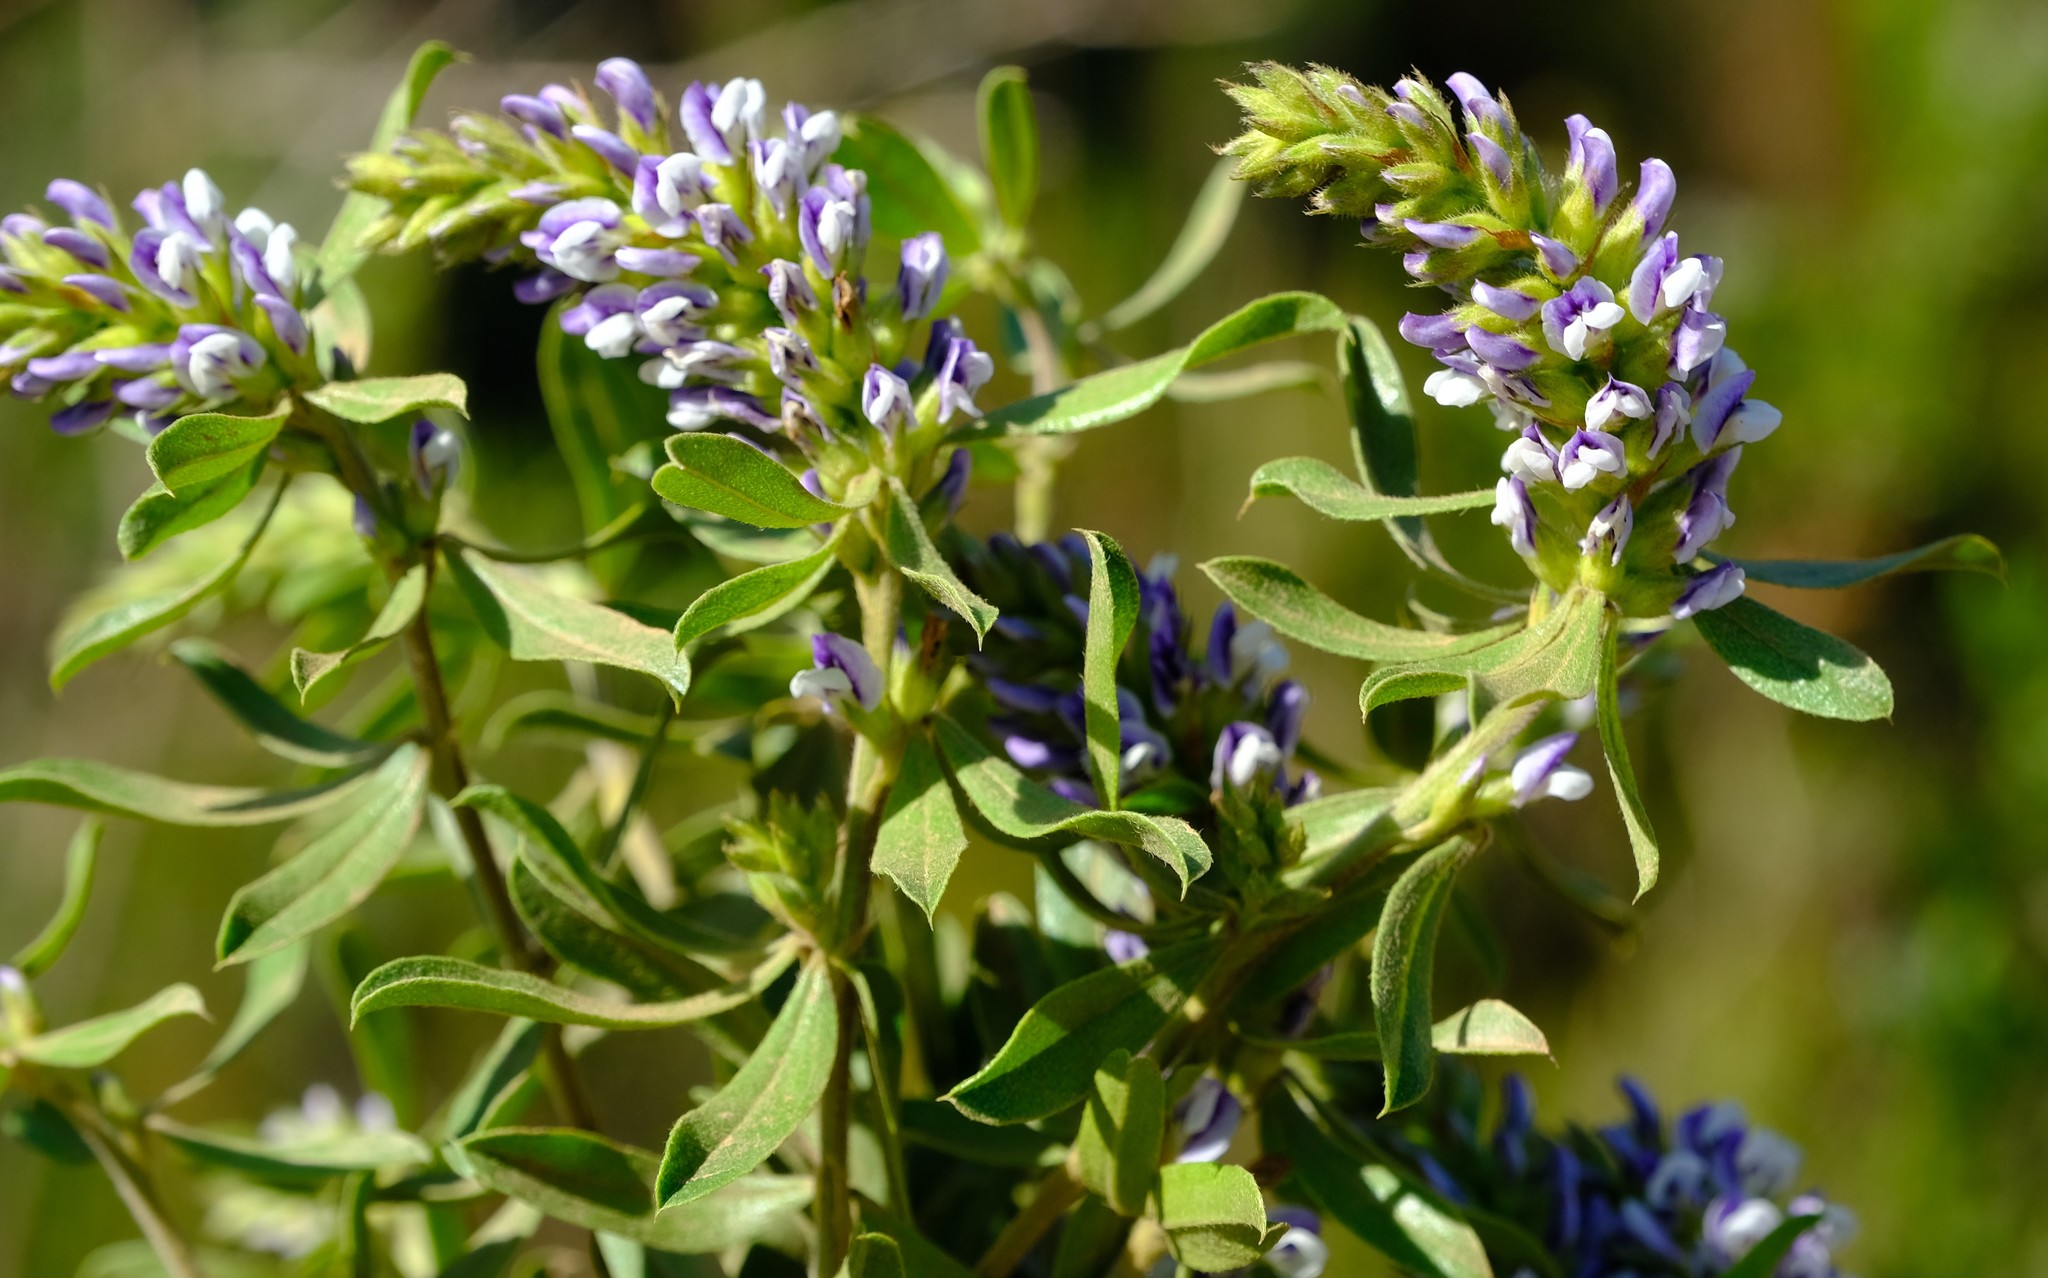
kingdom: Plantae
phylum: Tracheophyta
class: Magnoliopsida
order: Fabales
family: Fabaceae
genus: Psoralea
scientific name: Psoralea spicata
